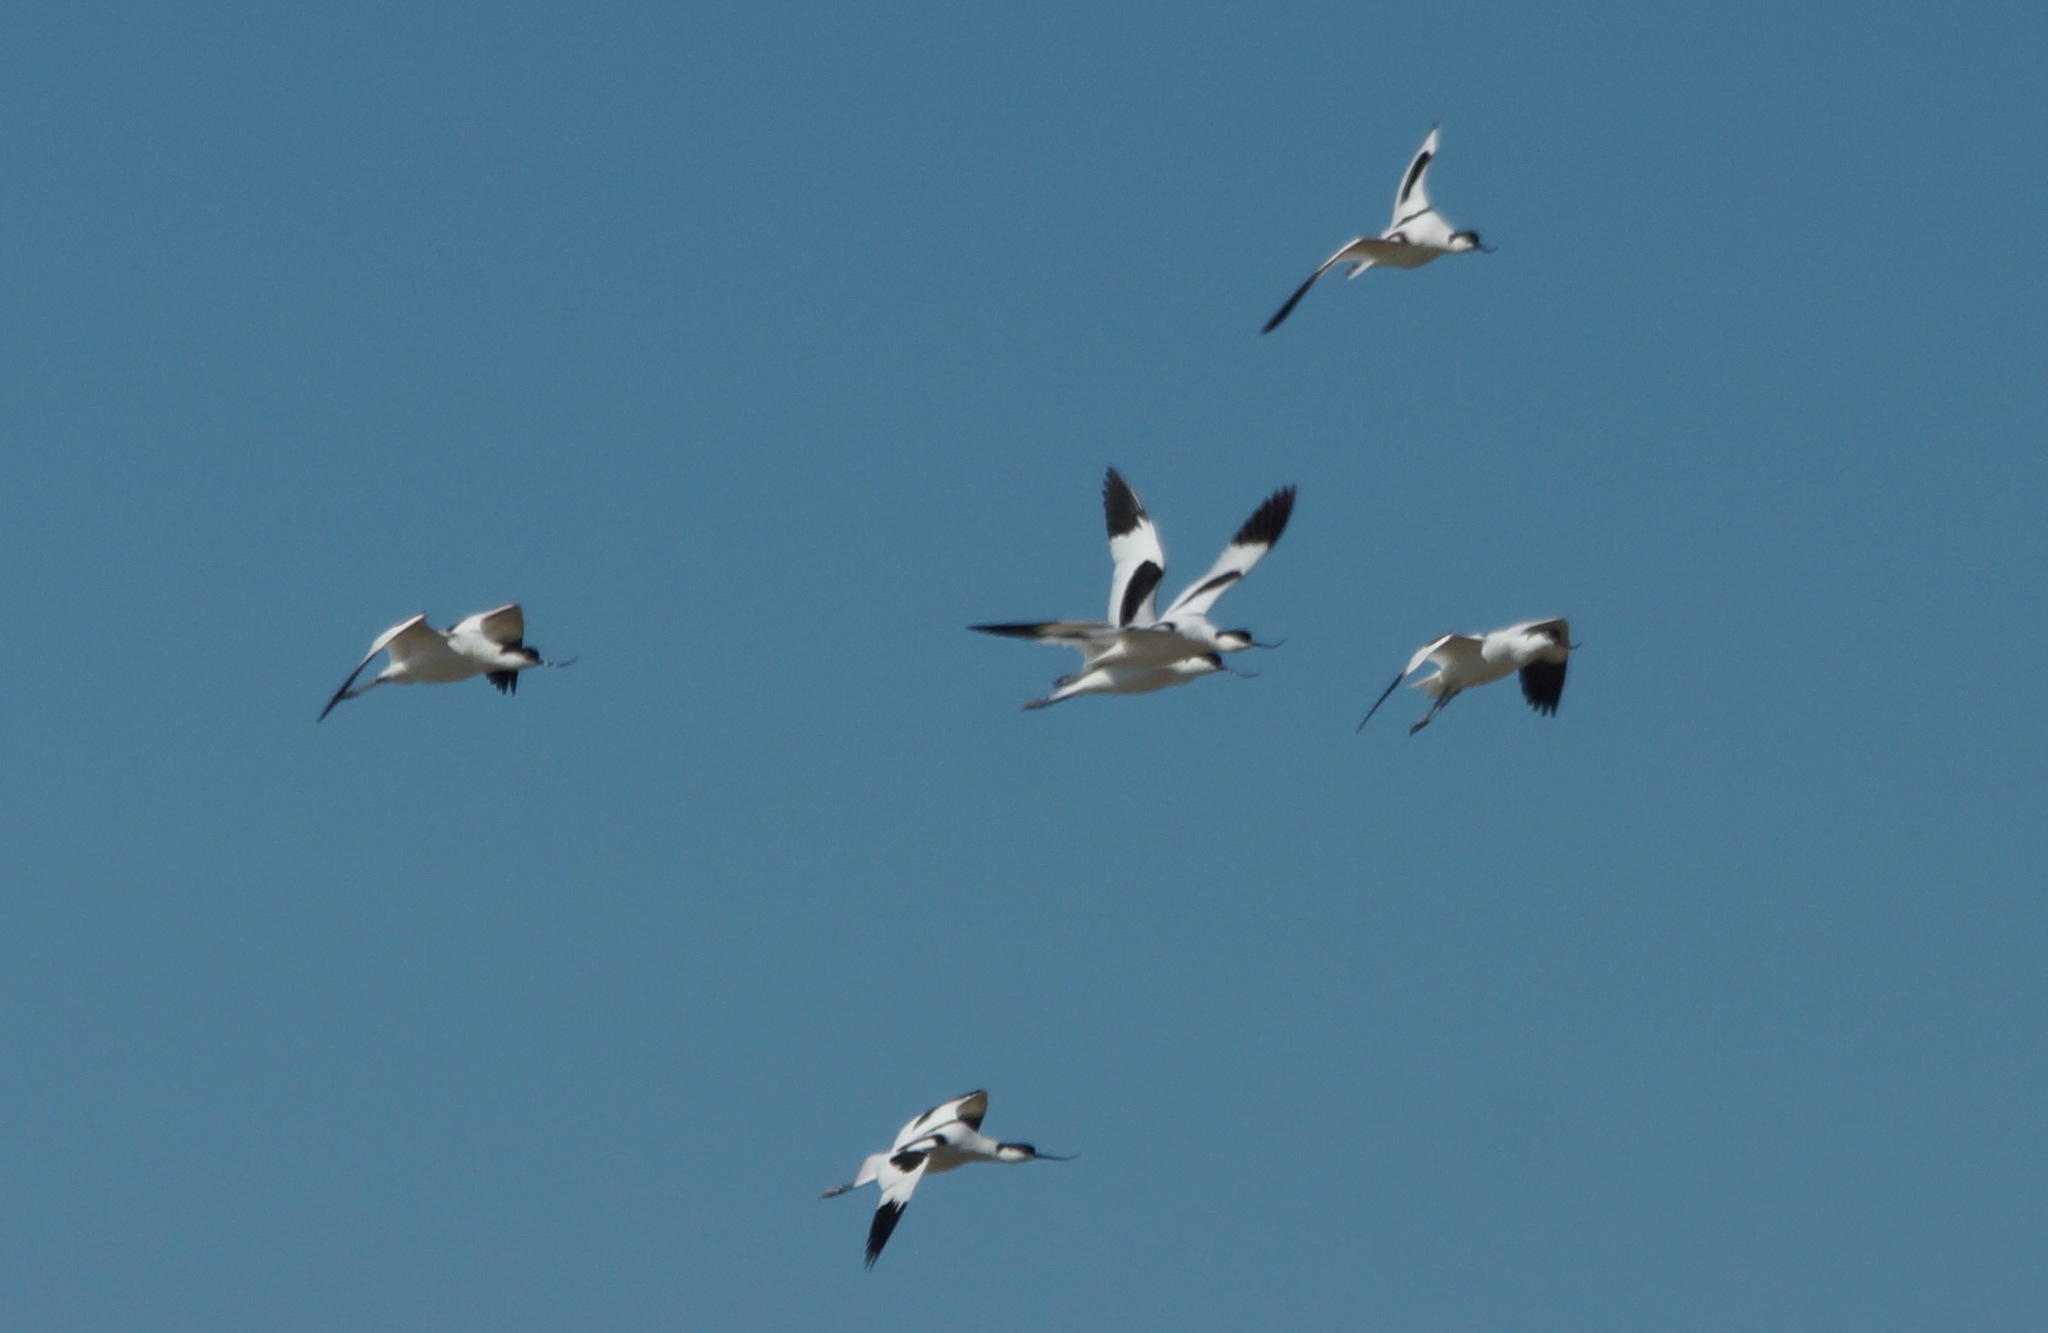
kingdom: Animalia
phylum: Chordata
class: Aves
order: Charadriiformes
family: Recurvirostridae
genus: Recurvirostra
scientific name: Recurvirostra avosetta
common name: Pied avocet
